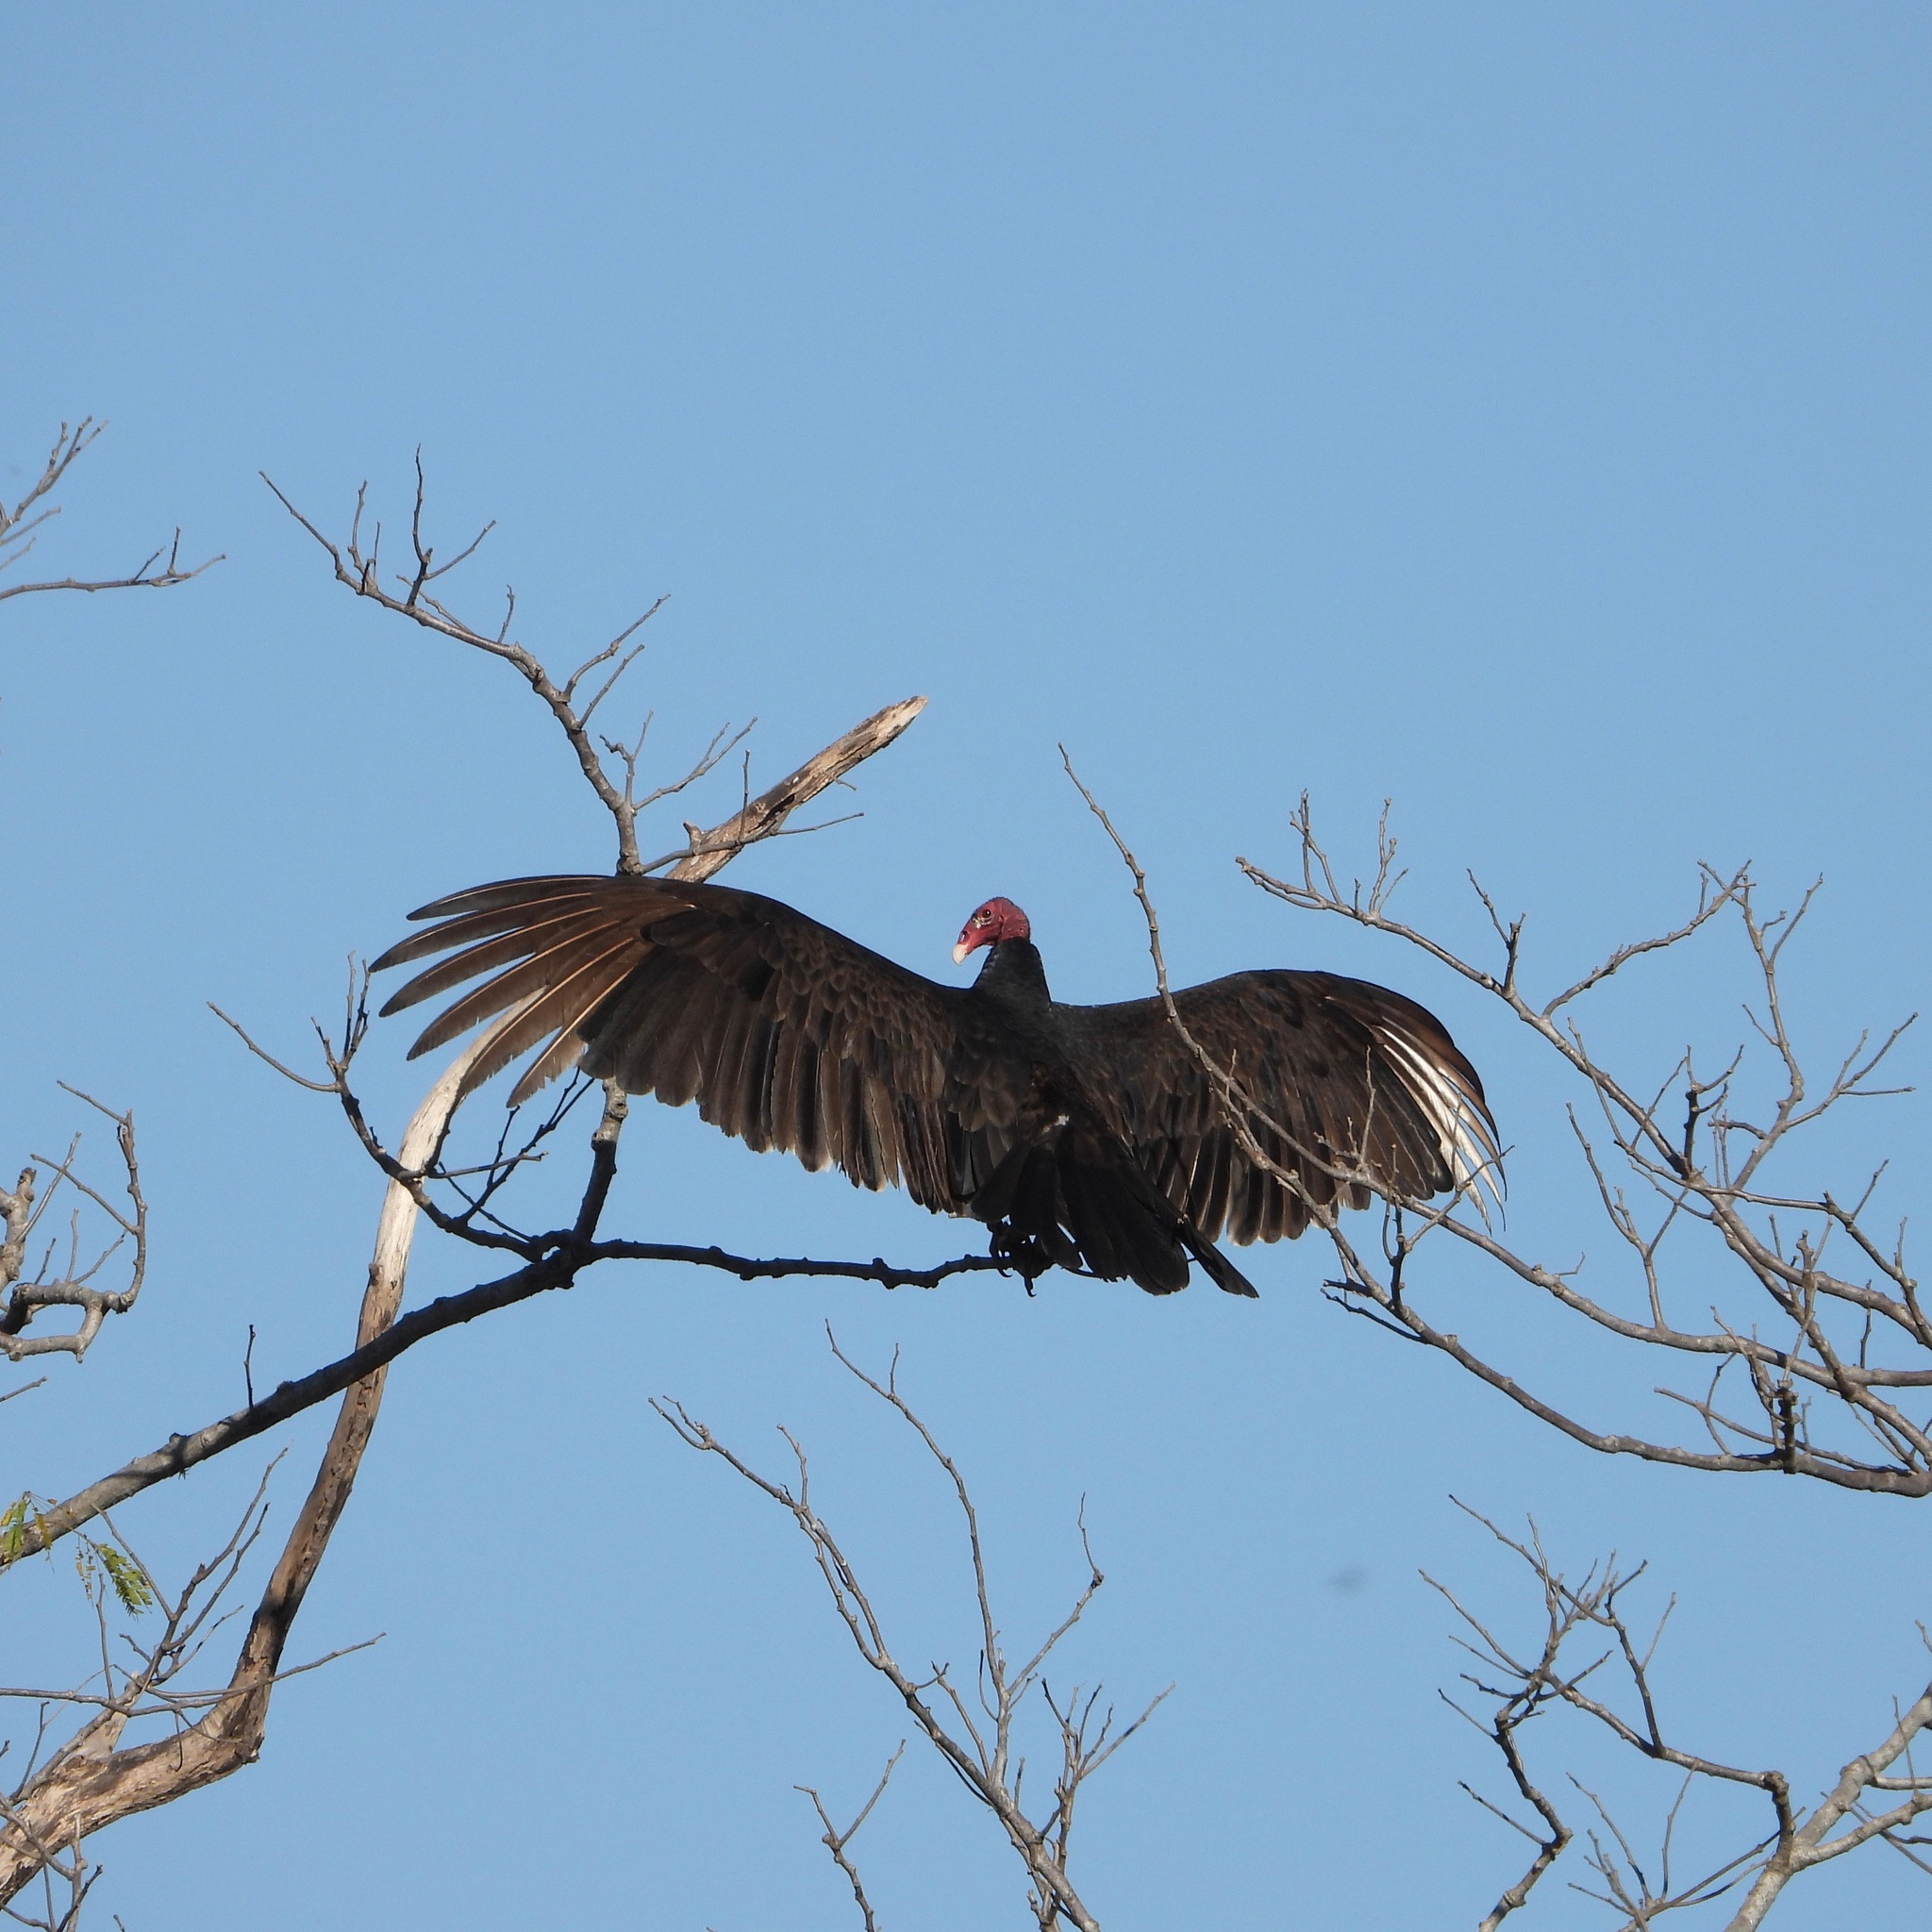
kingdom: Animalia
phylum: Chordata
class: Aves
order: Accipitriformes
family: Cathartidae
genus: Cathartes
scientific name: Cathartes aura
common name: Turkey vulture
